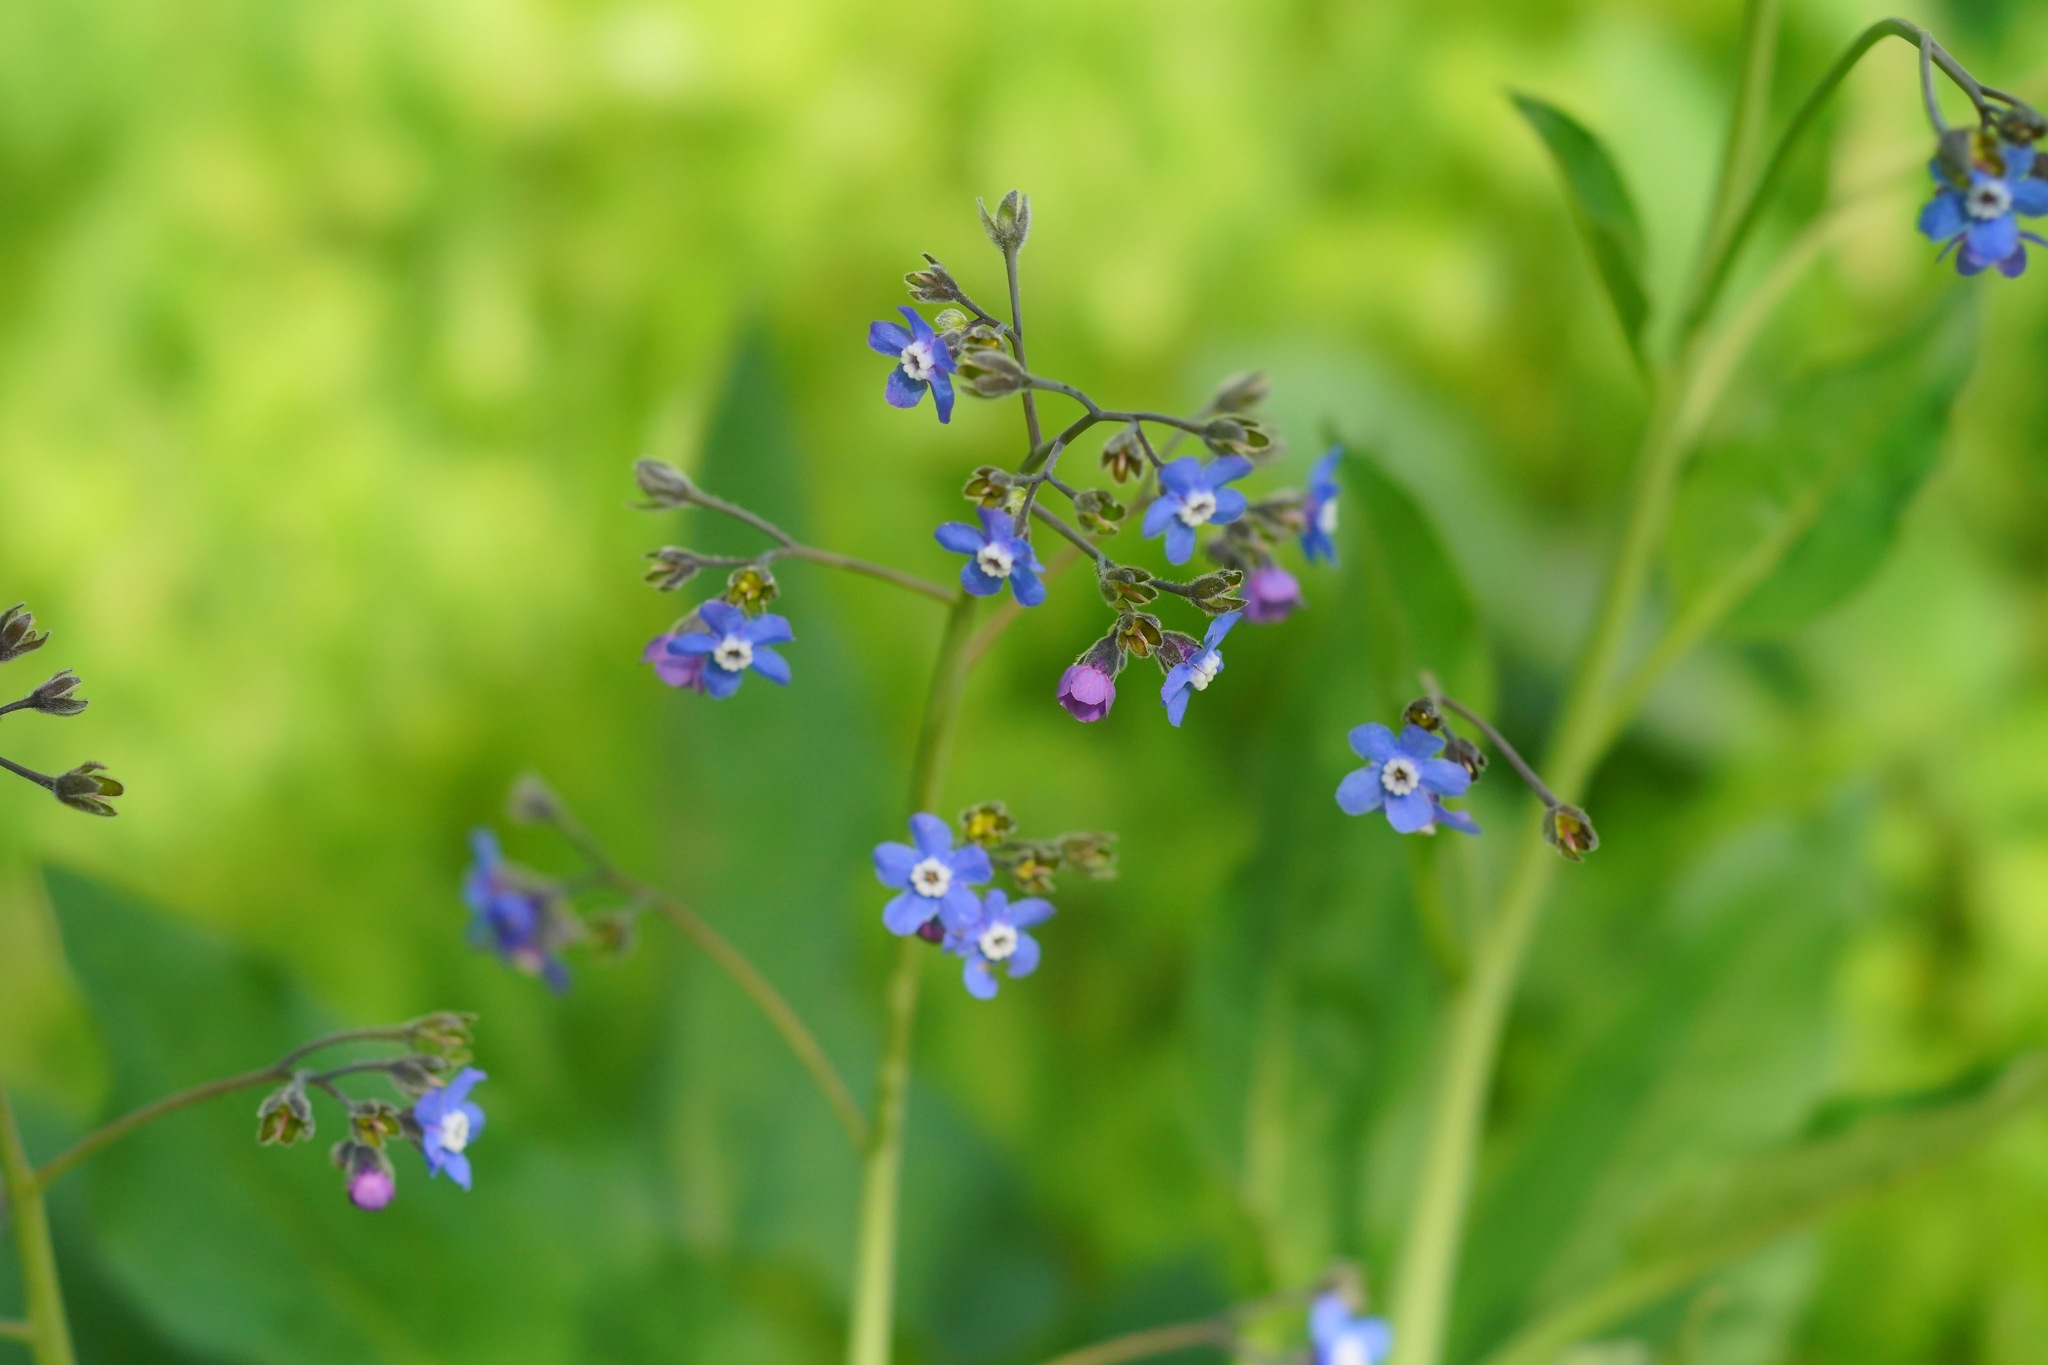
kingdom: Plantae
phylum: Tracheophyta
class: Magnoliopsida
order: Boraginales
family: Boraginaceae
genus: Adelinia
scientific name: Adelinia grande
